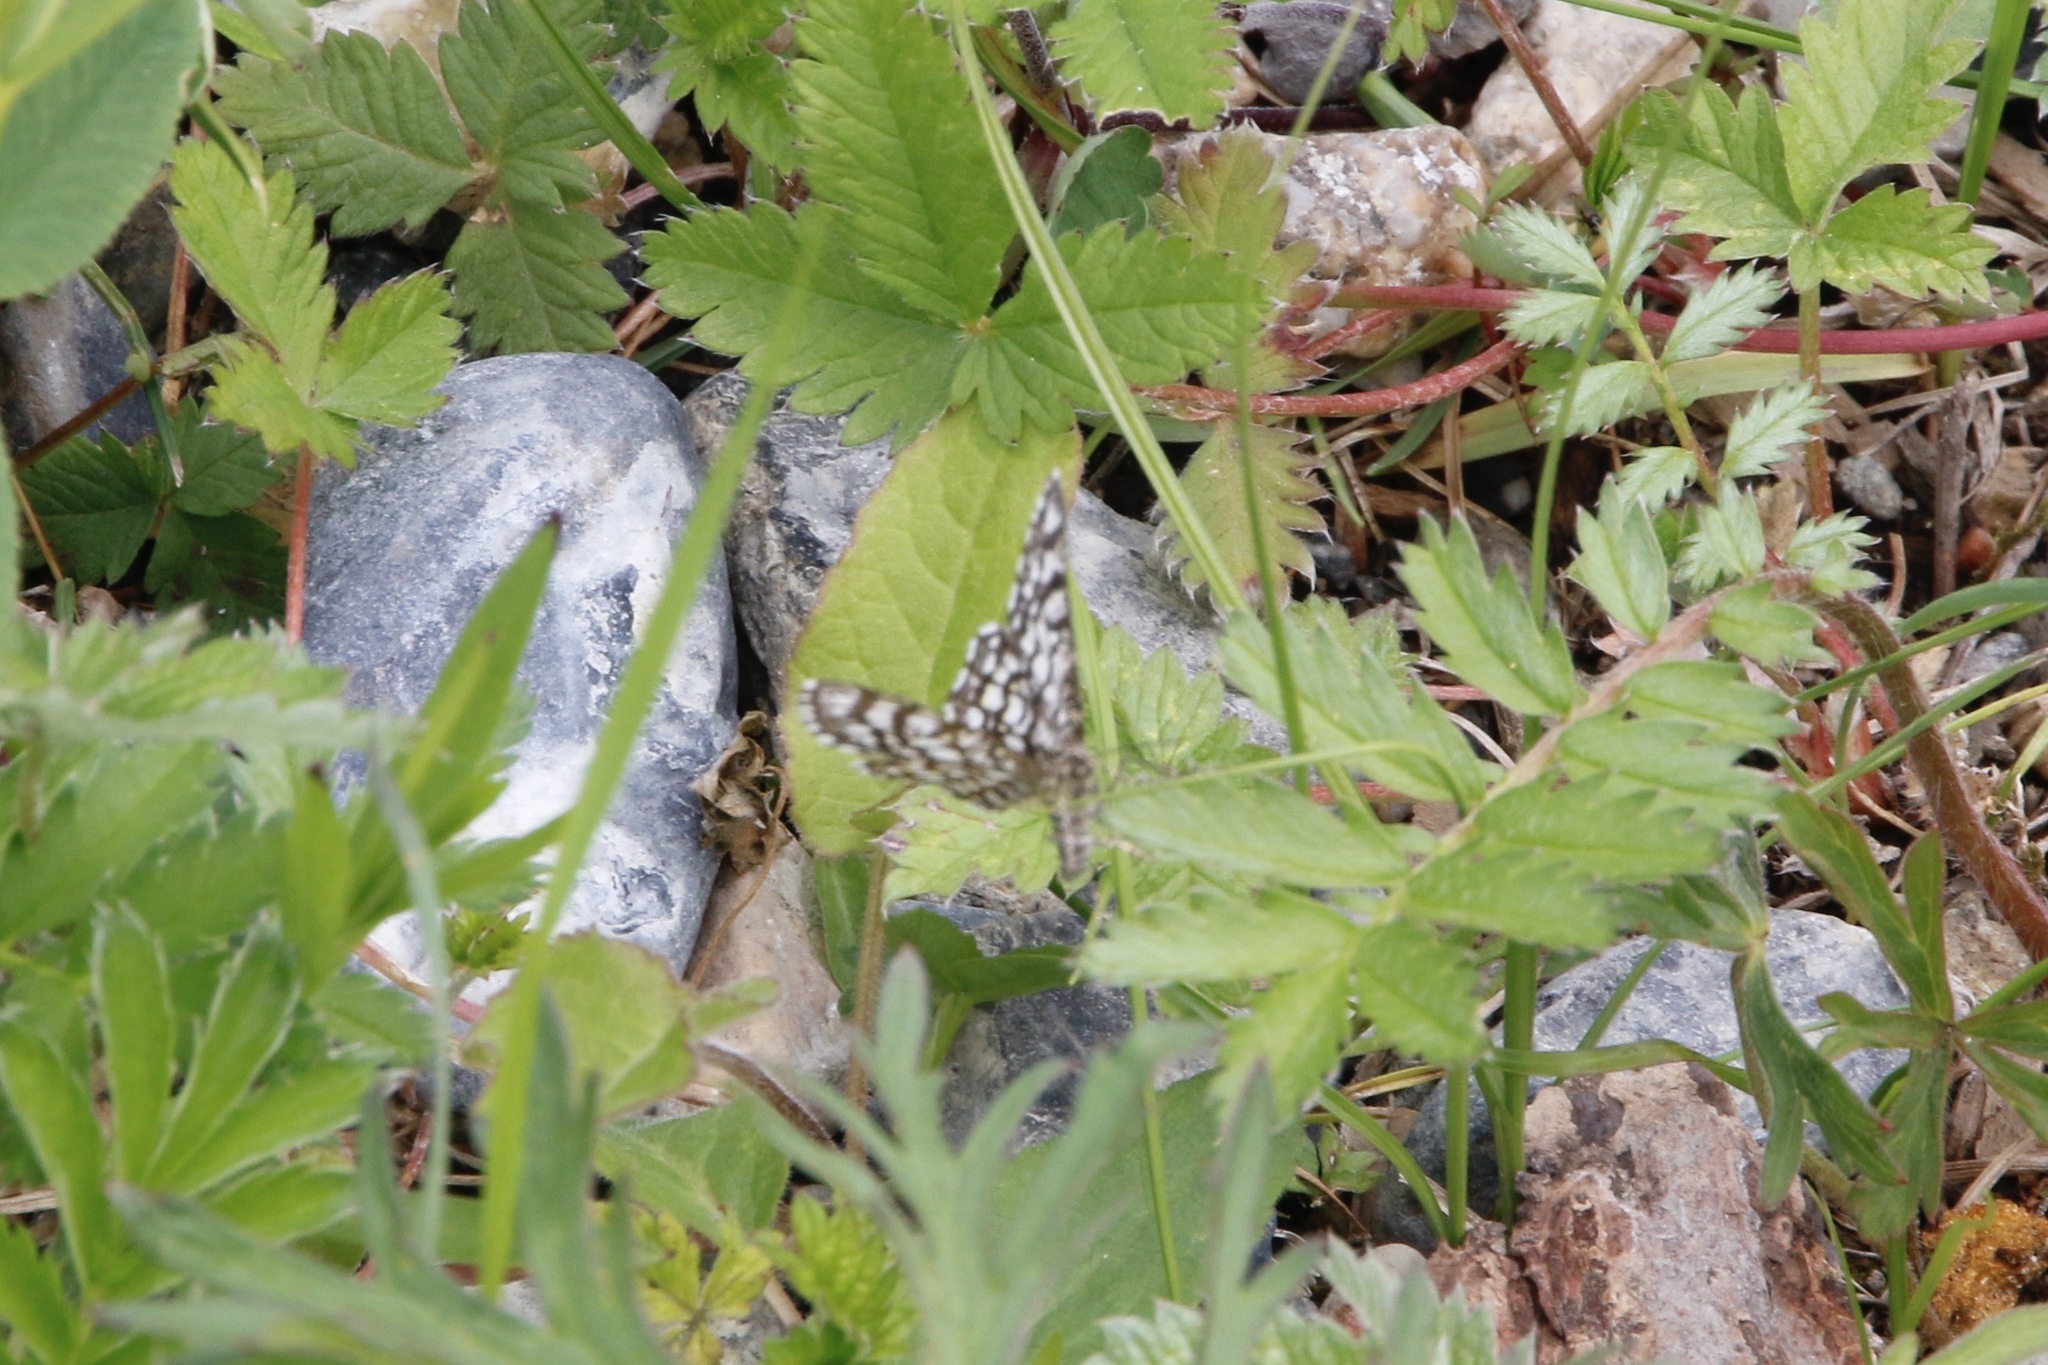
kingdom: Animalia
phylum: Arthropoda
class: Insecta
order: Lepidoptera
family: Geometridae
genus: Chiasmia
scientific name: Chiasmia clathrata
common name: Latticed heath
